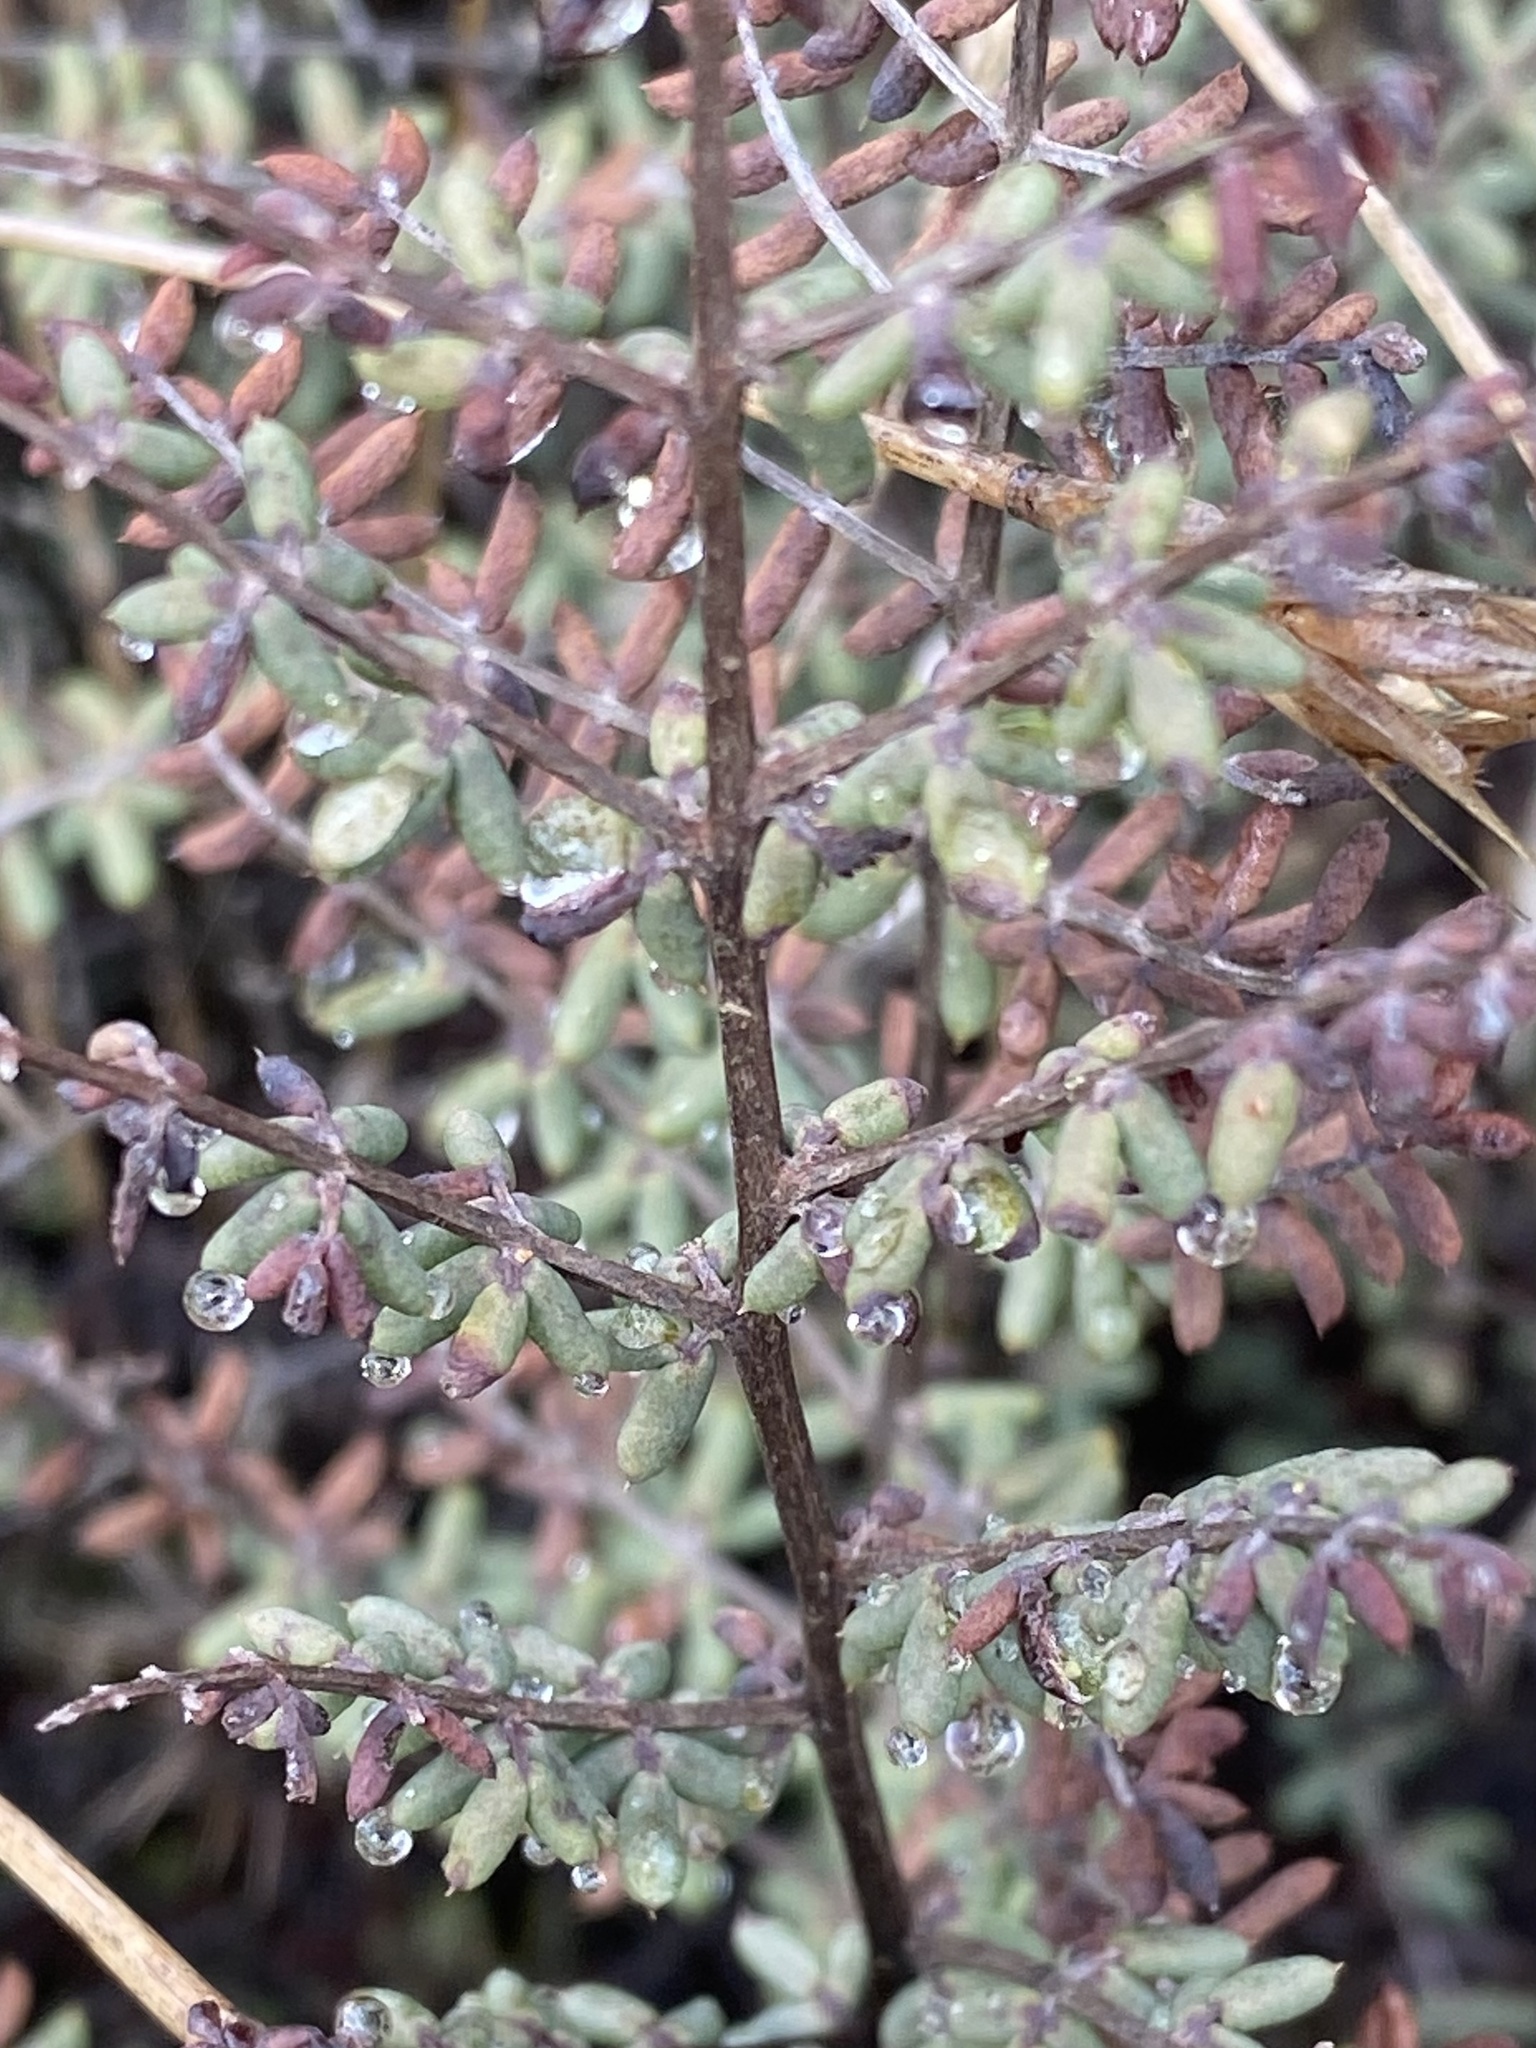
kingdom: Plantae
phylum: Tracheophyta
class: Polypodiopsida
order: Polypodiales
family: Pteridaceae
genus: Pellaea
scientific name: Pellaea mucronata
